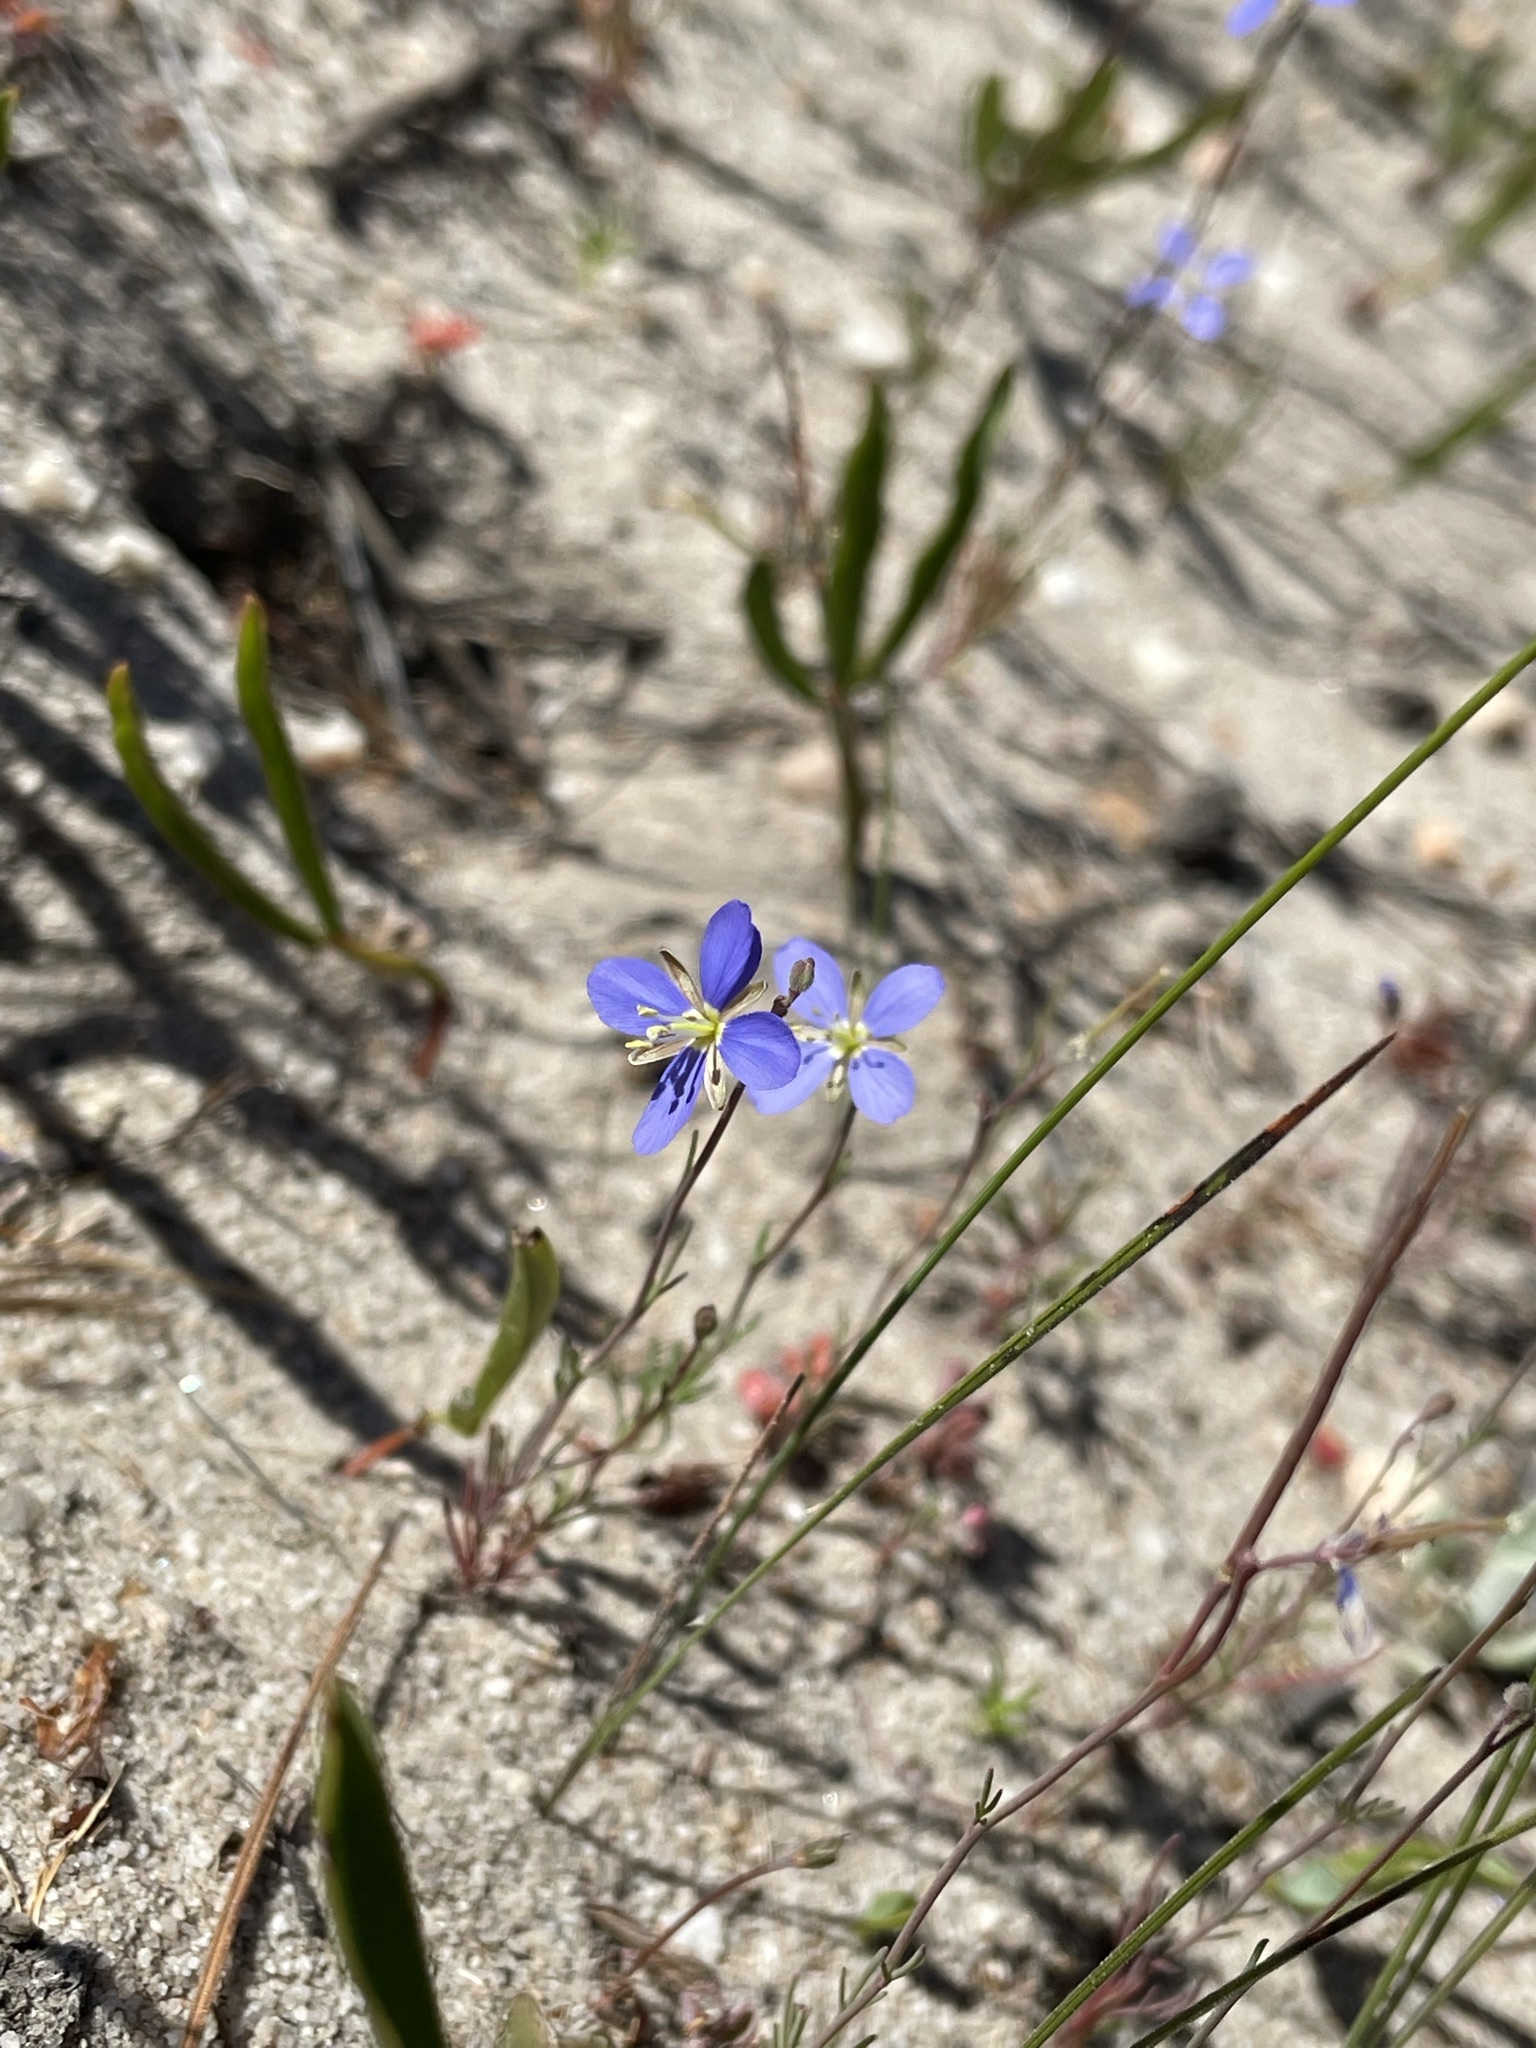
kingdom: Plantae
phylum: Tracheophyta
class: Magnoliopsida
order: Brassicales
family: Brassicaceae
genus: Heliophila
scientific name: Heliophila digitata
